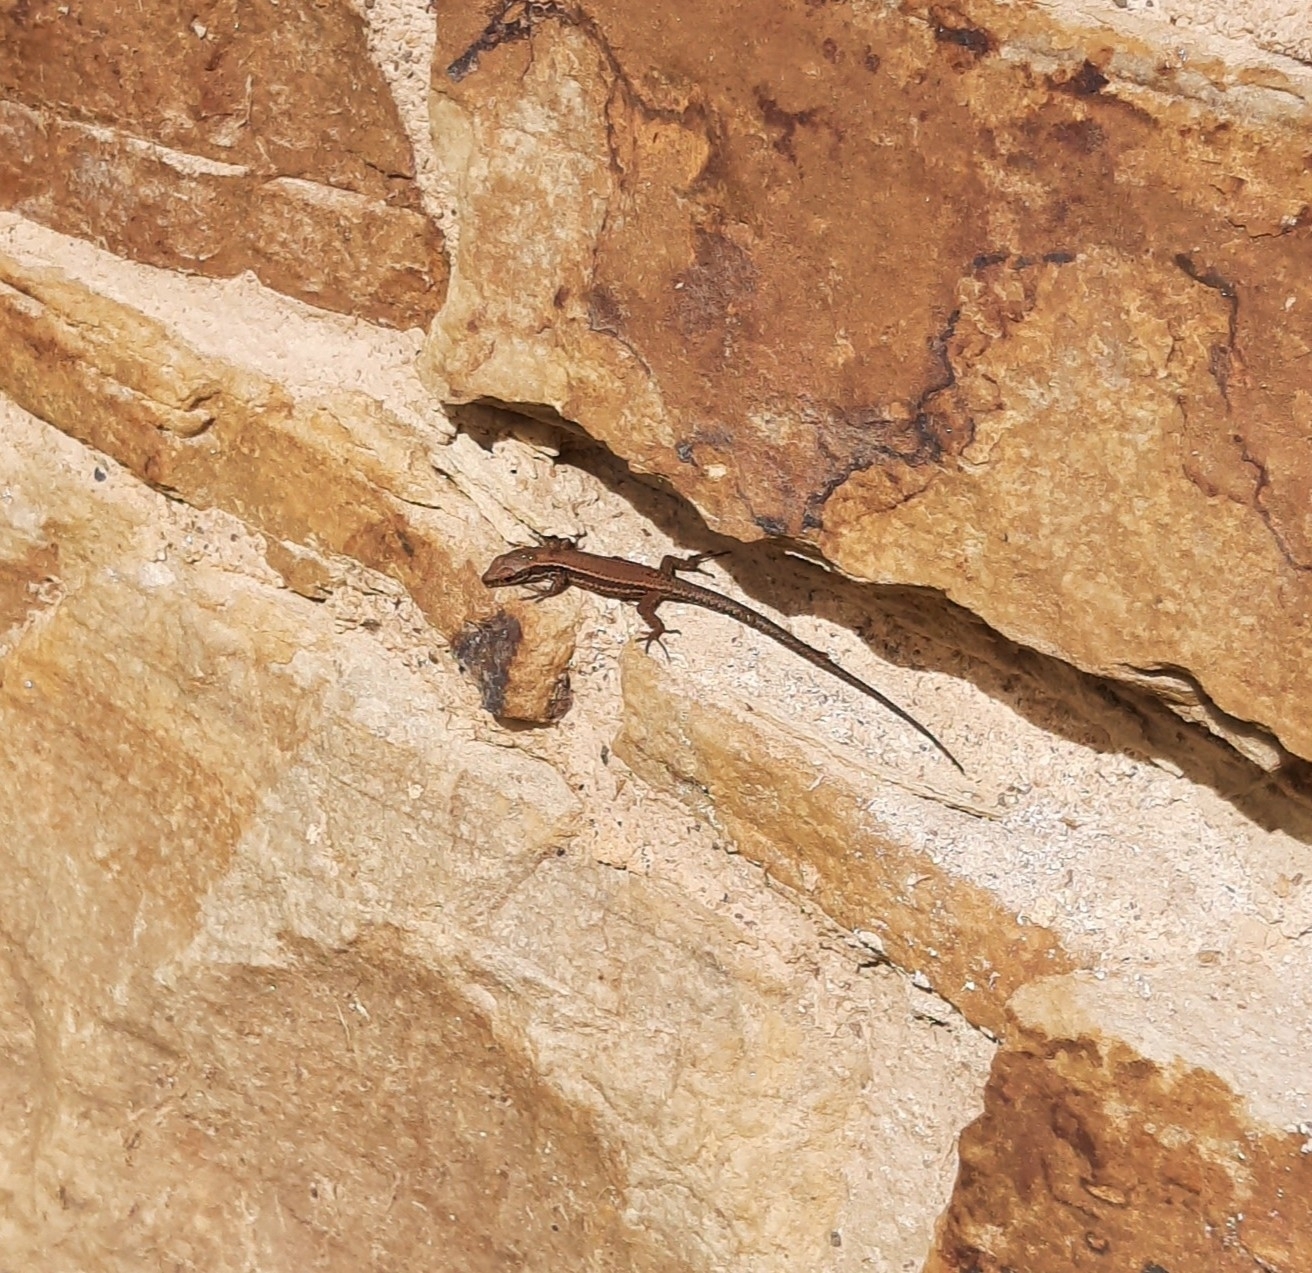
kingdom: Animalia
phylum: Chordata
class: Squamata
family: Lacertidae
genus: Podarcis
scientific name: Podarcis muralis
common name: Common wall lizard
